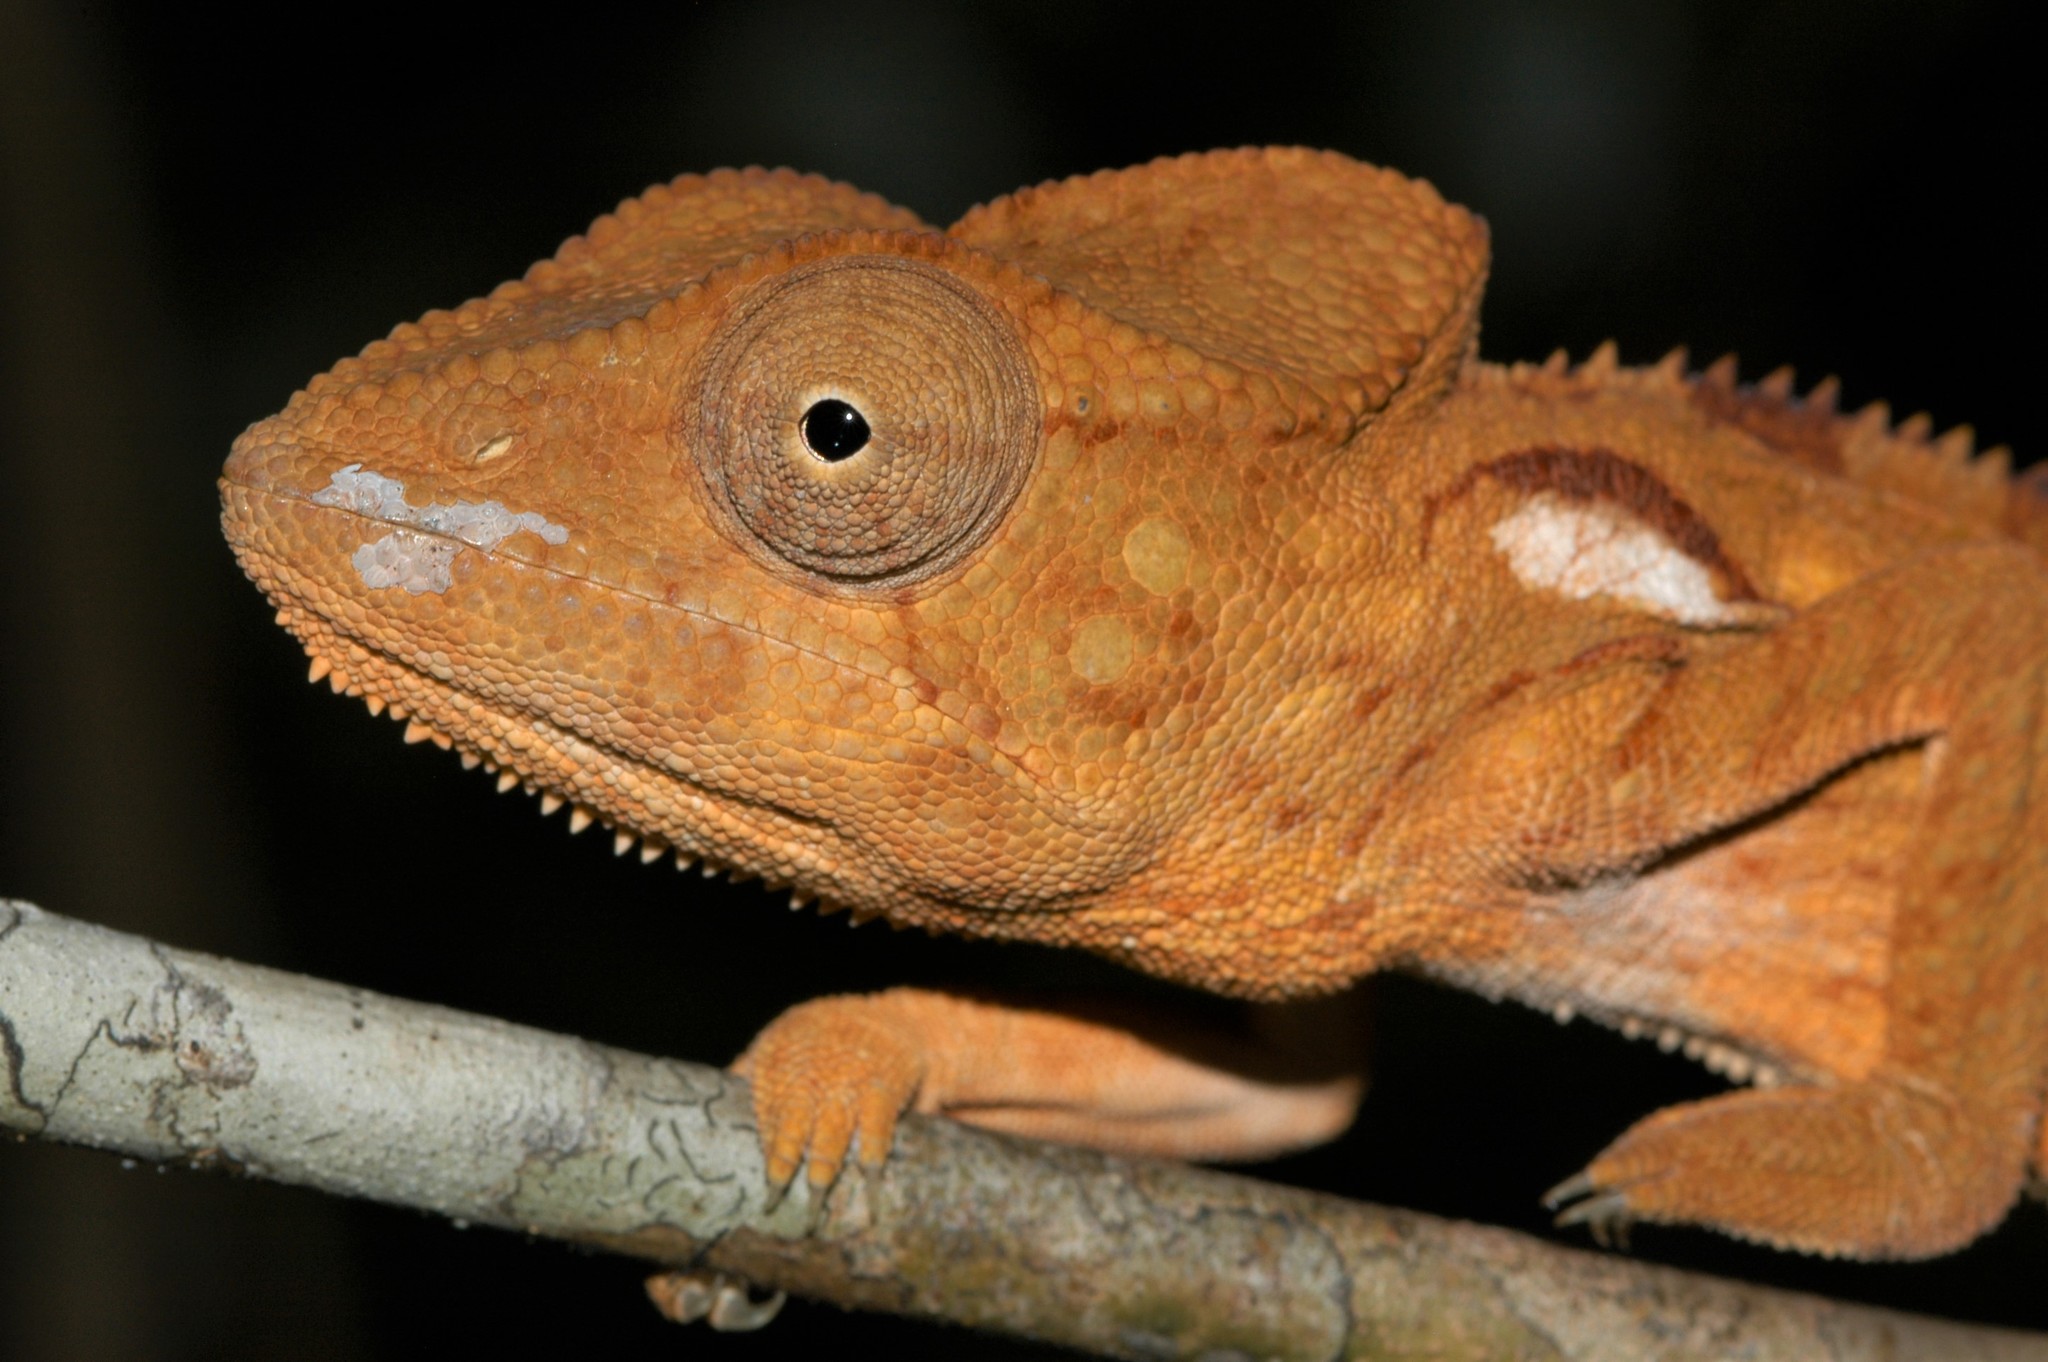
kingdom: Animalia
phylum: Chordata
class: Squamata
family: Chamaeleonidae
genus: Furcifer
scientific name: Furcifer oustaleti
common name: Oustalet's chameleon
